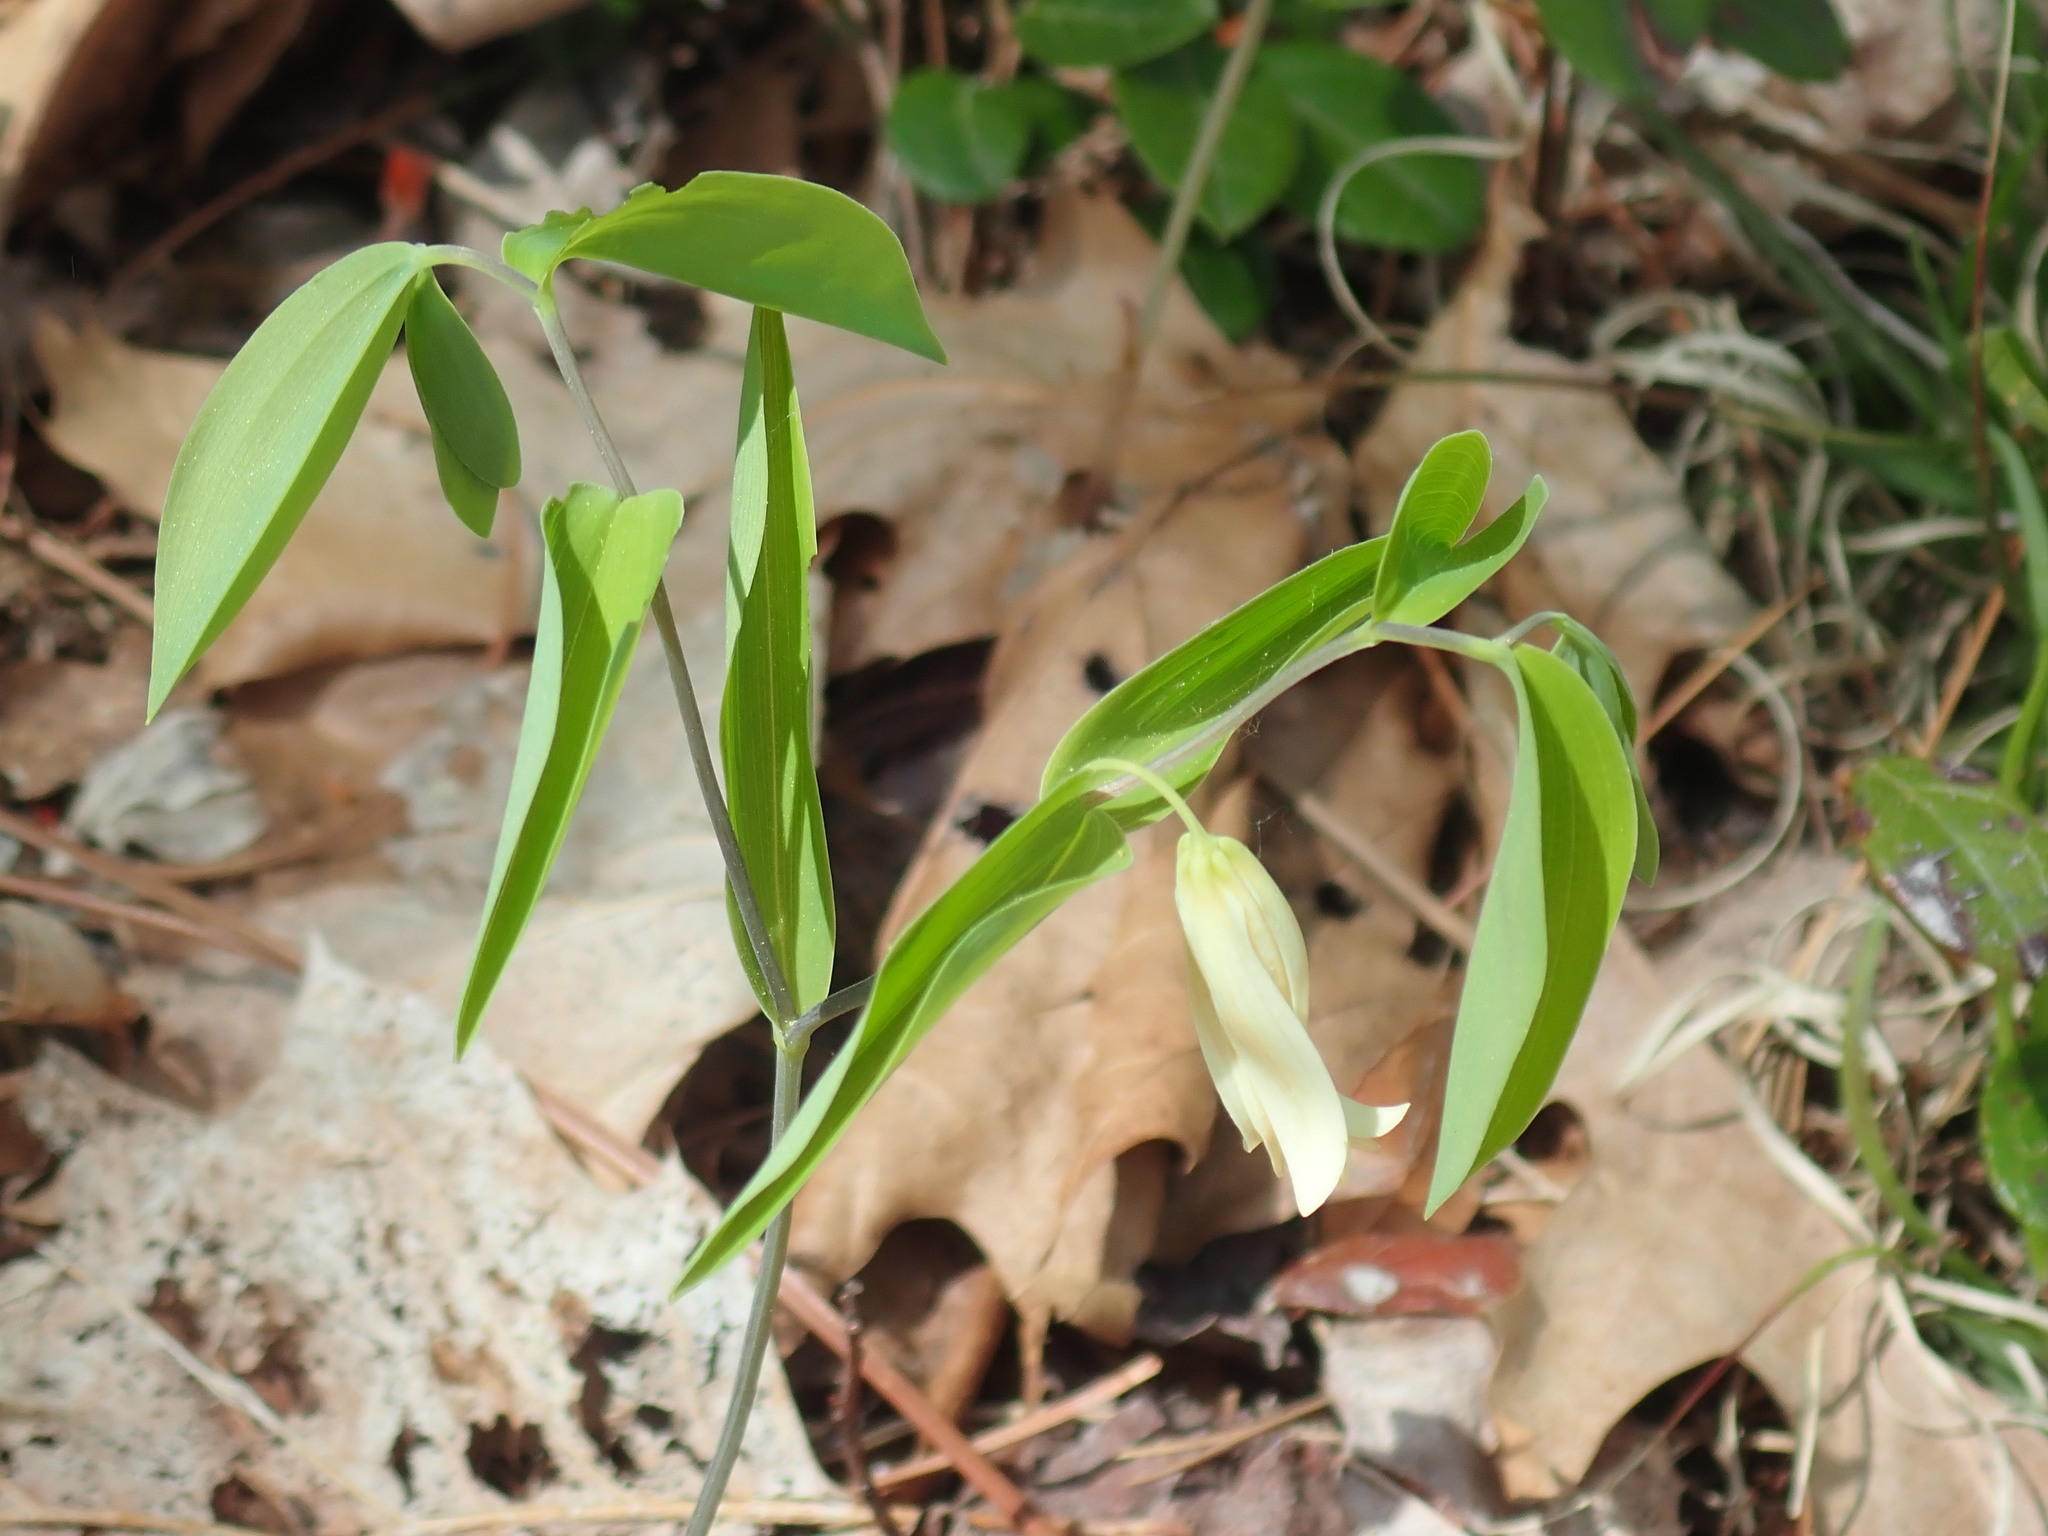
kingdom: Plantae
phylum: Tracheophyta
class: Liliopsida
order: Liliales
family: Colchicaceae
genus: Uvularia
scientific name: Uvularia sessilifolia
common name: Straw-lily
